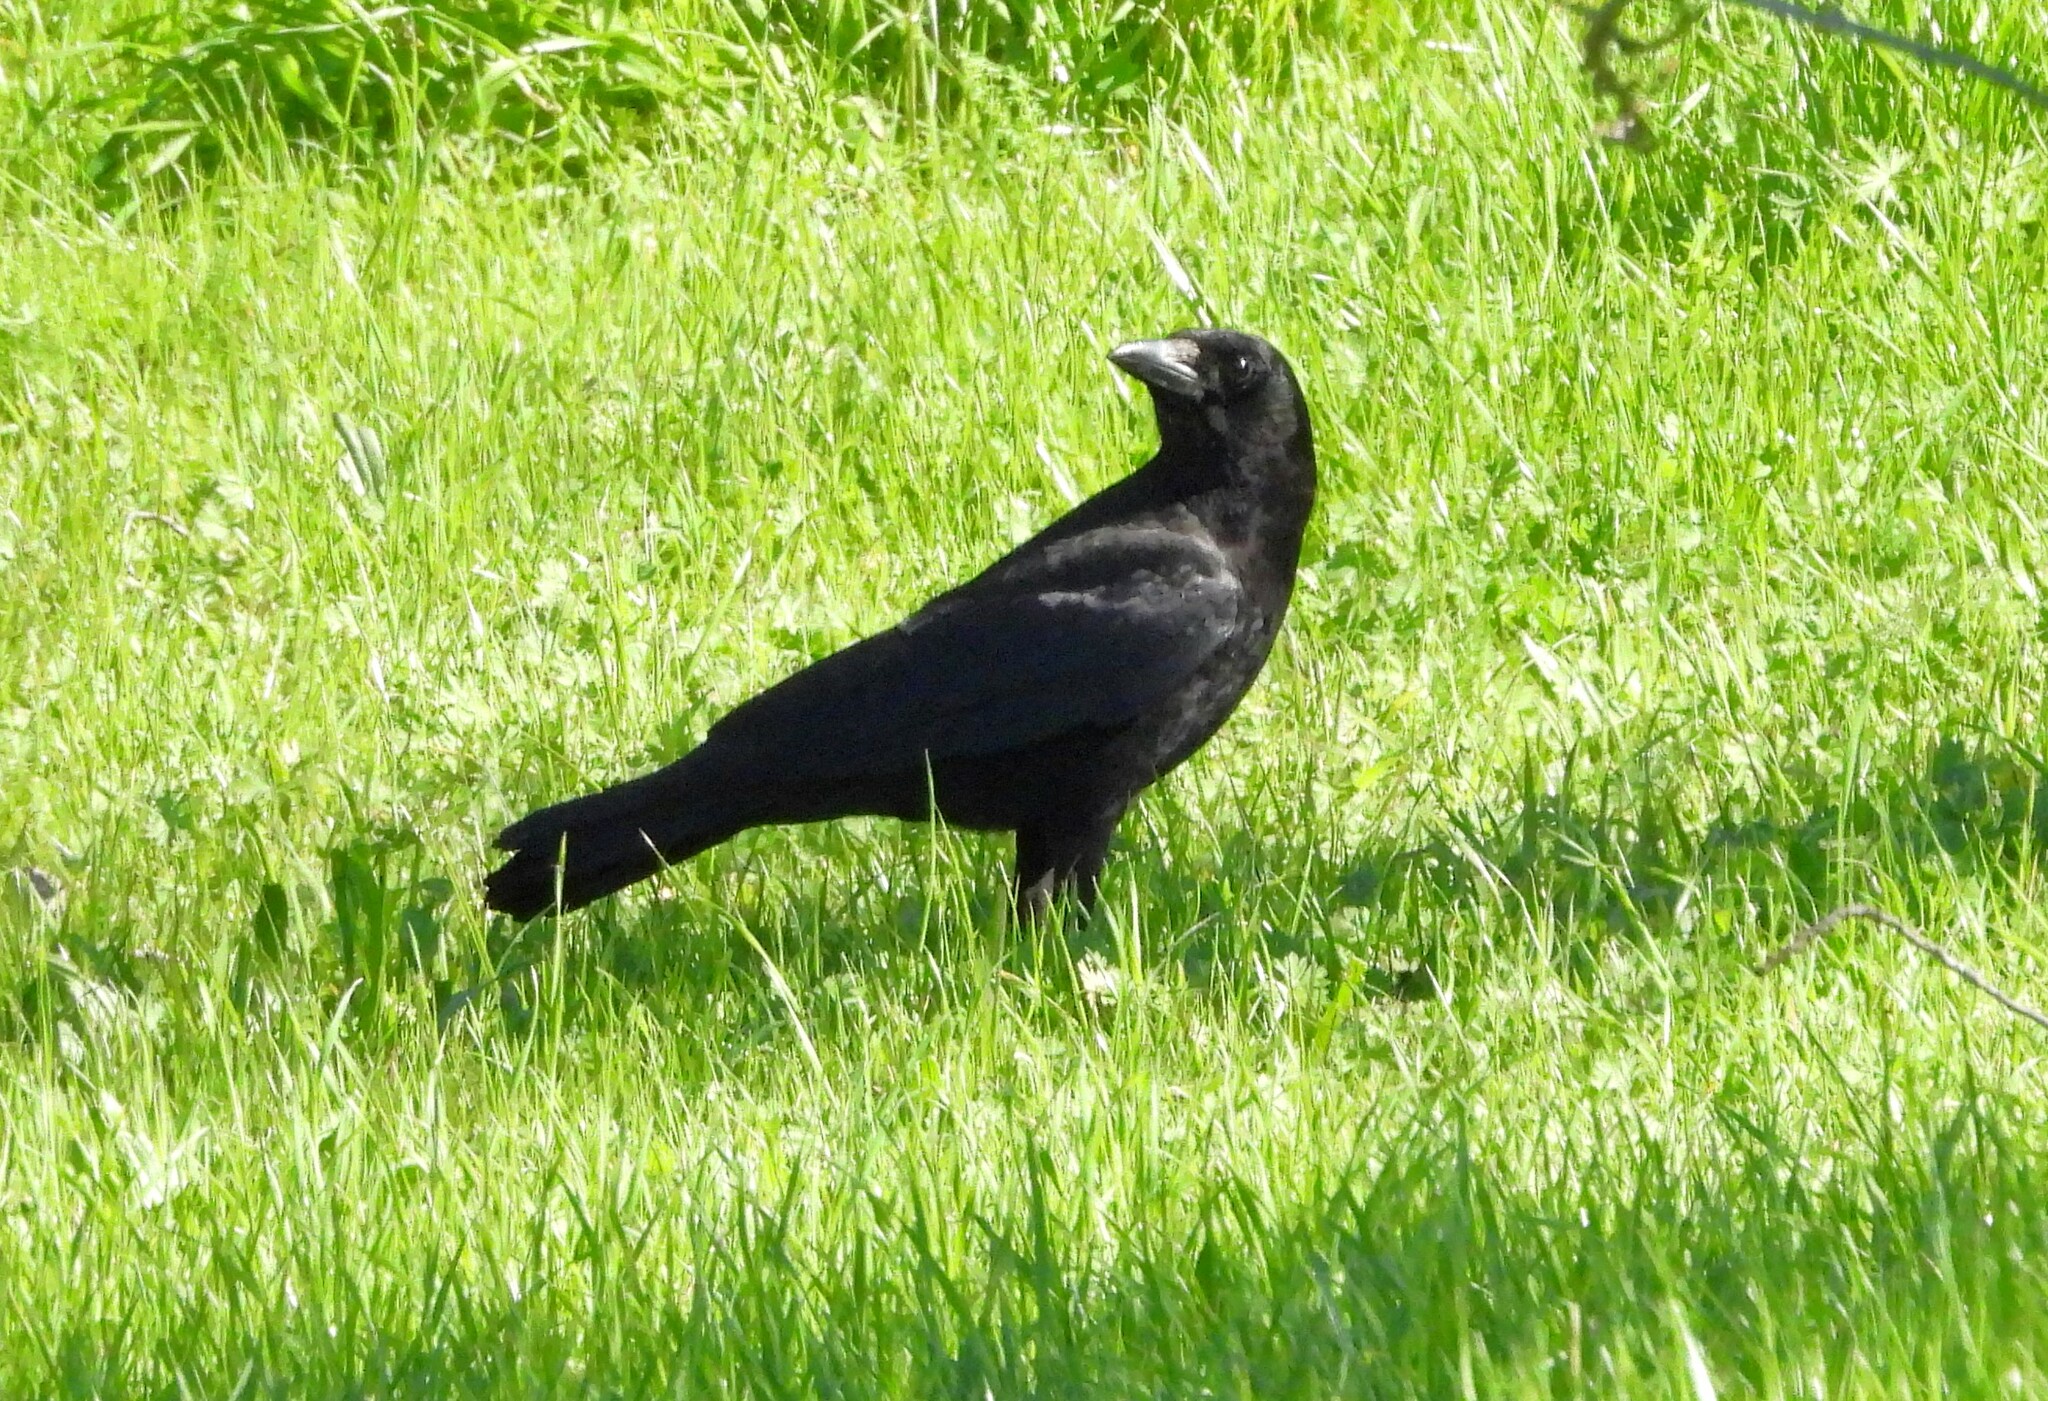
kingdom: Animalia
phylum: Chordata
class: Aves
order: Passeriformes
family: Corvidae
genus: Corvus
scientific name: Corvus brachyrhynchos
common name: American crow
